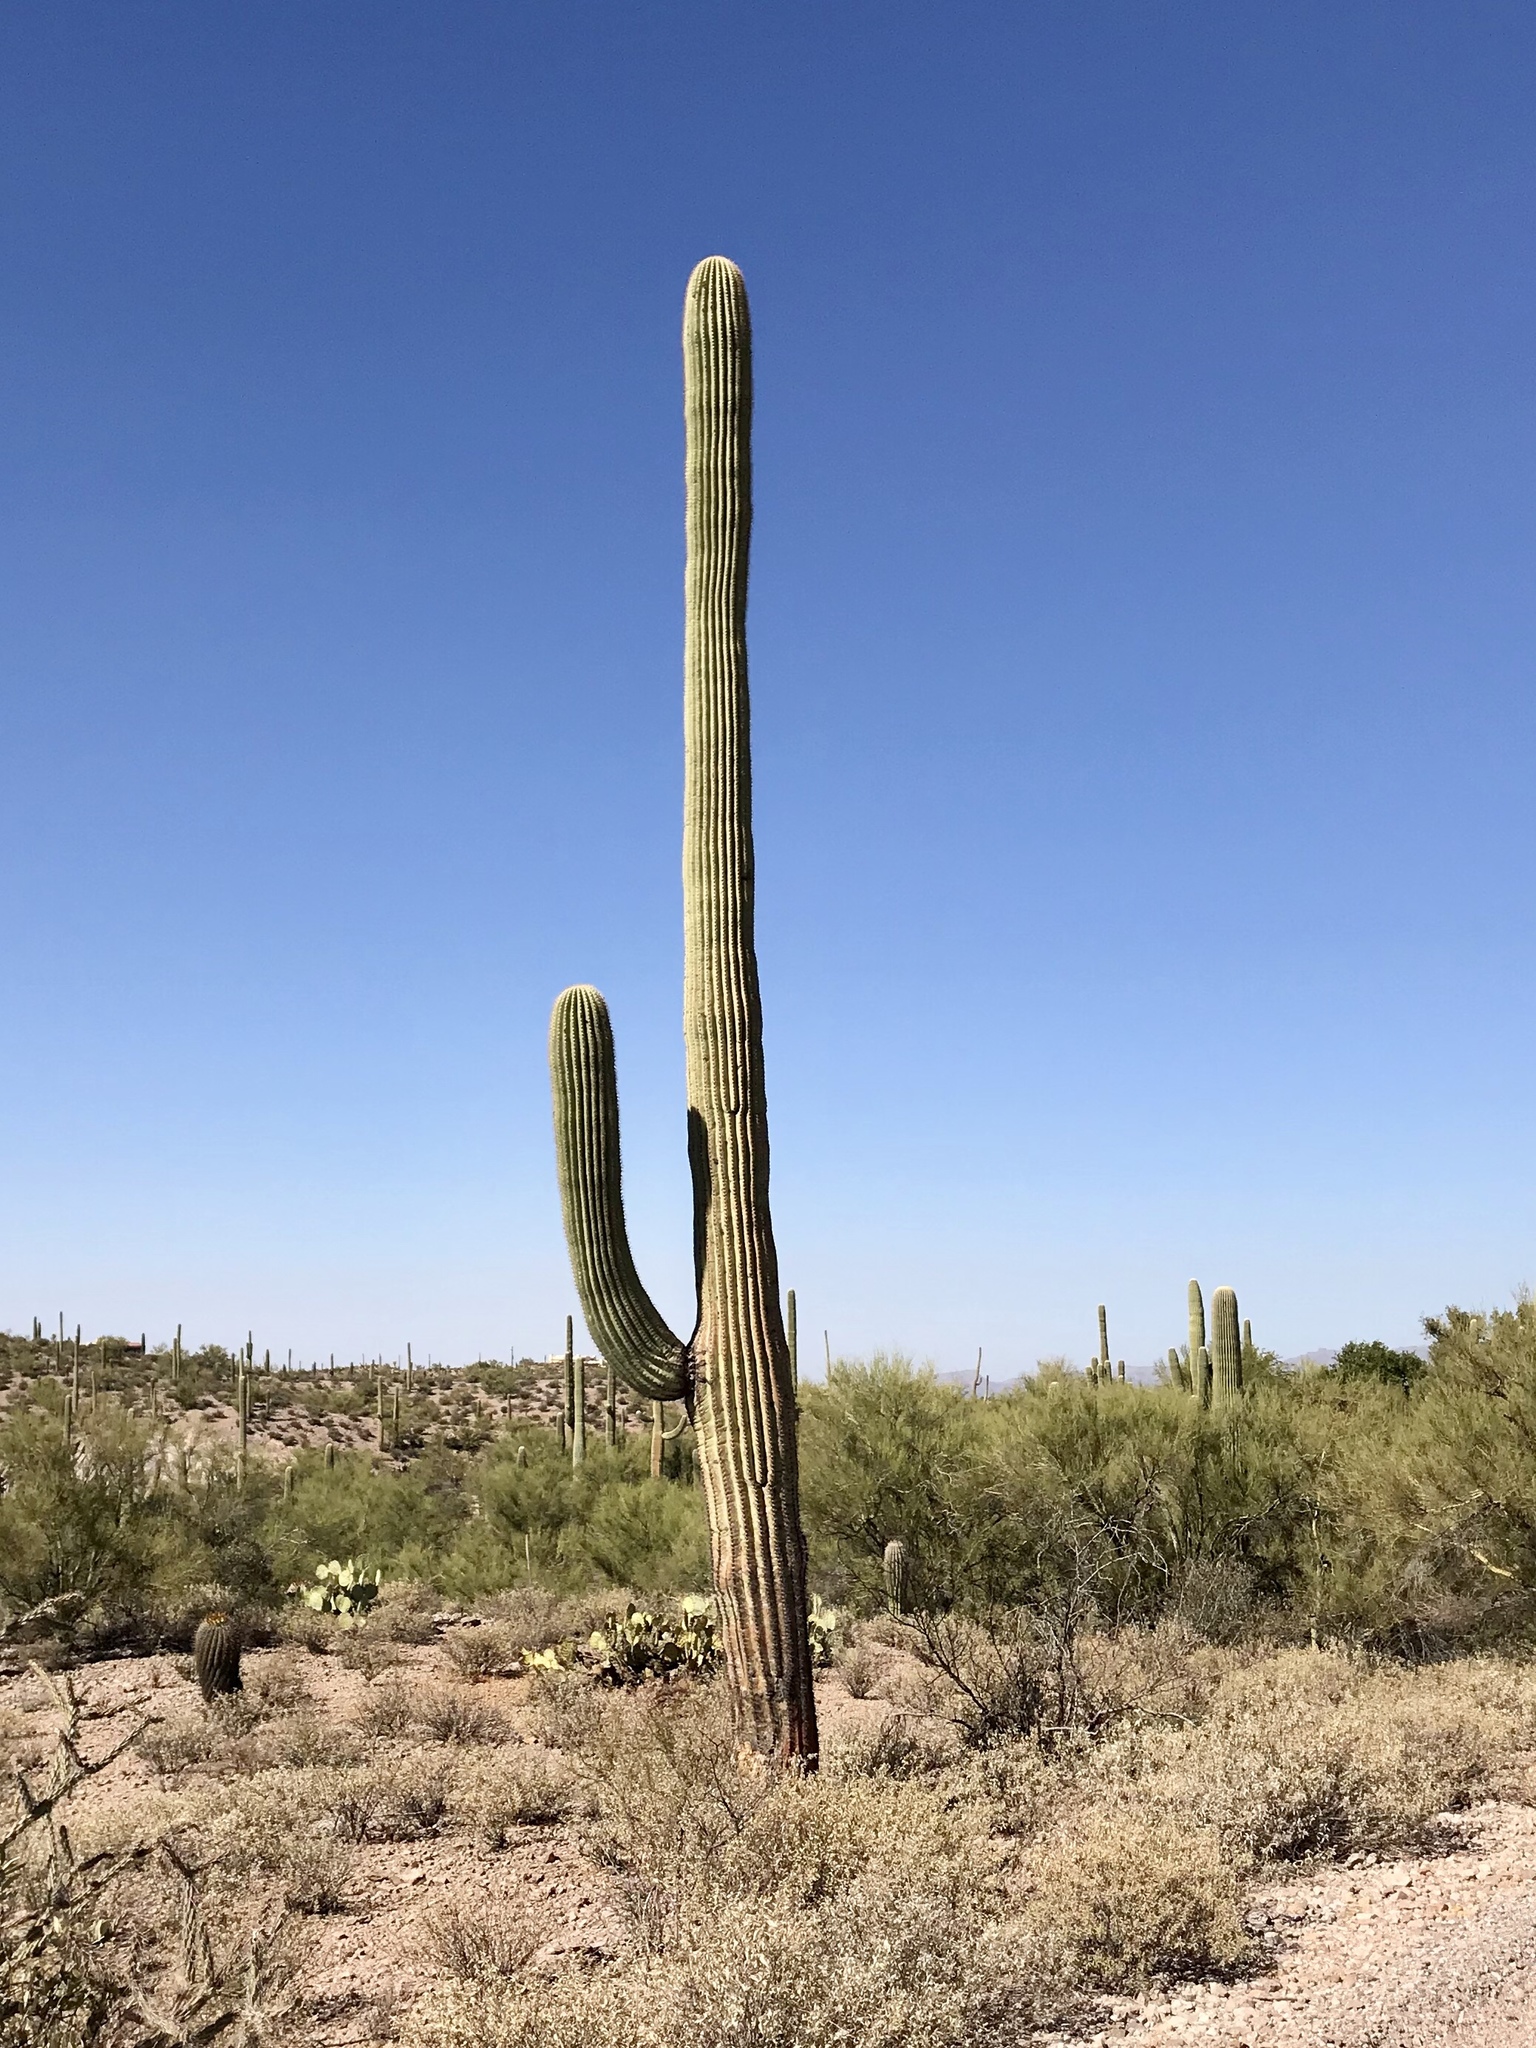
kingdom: Plantae
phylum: Tracheophyta
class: Magnoliopsida
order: Caryophyllales
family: Cactaceae
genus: Carnegiea
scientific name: Carnegiea gigantea
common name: Saguaro
